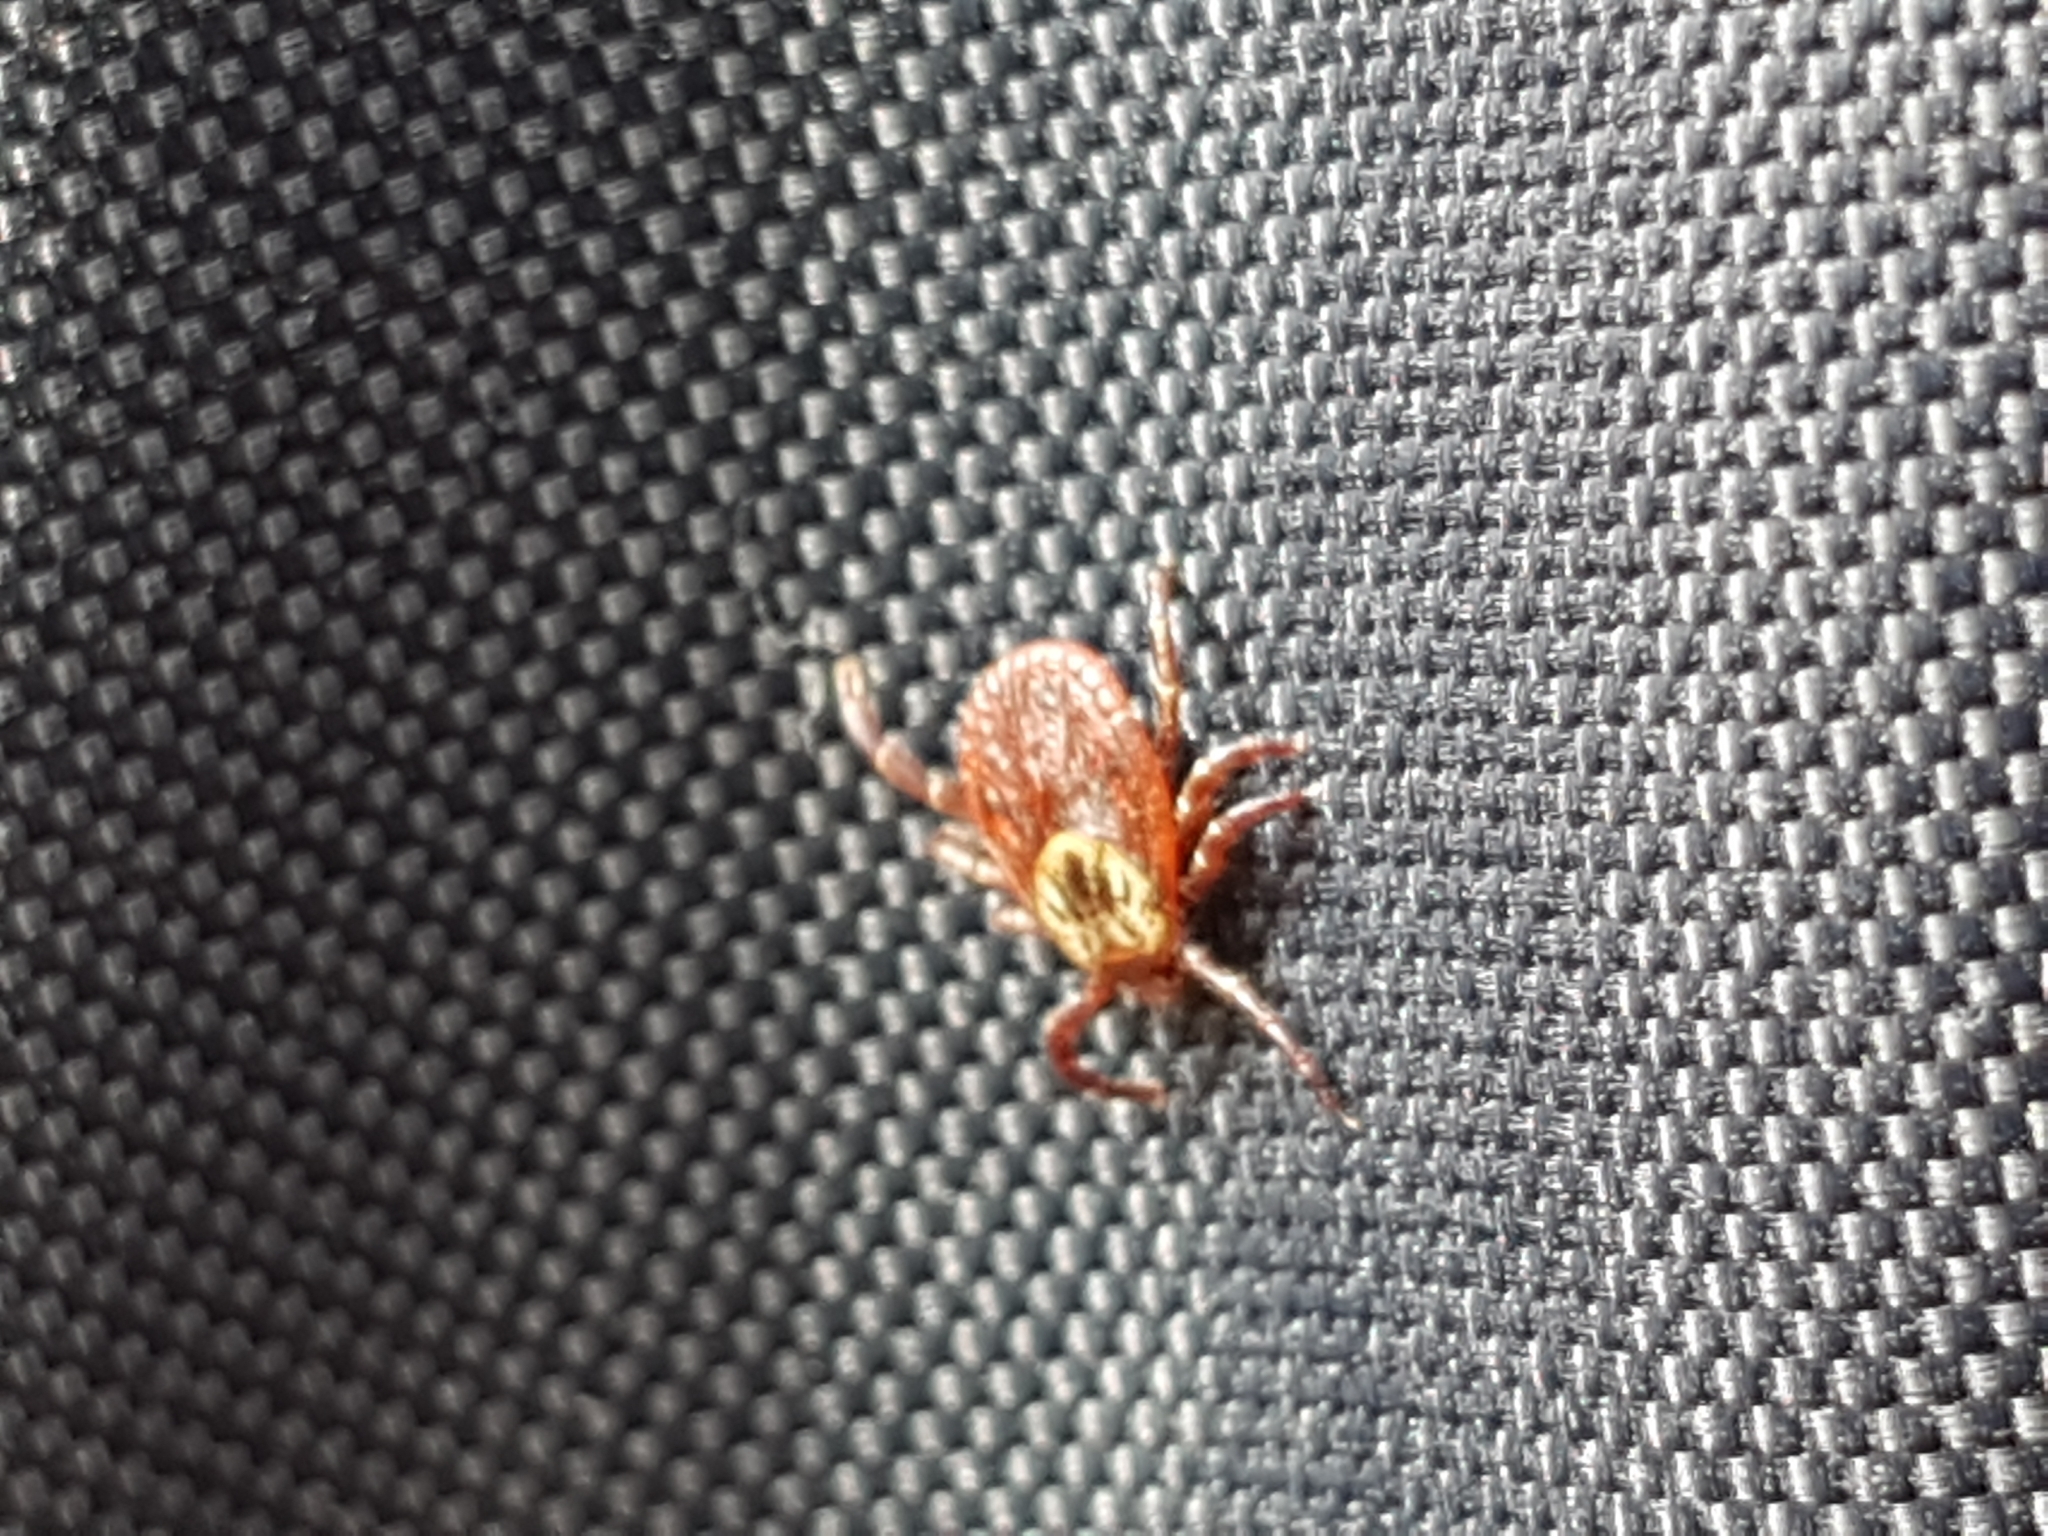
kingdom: Animalia
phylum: Arthropoda
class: Arachnida
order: Ixodida
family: Ixodidae
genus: Dermacentor
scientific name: Dermacentor reticulatus
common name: Ornate cow tick
